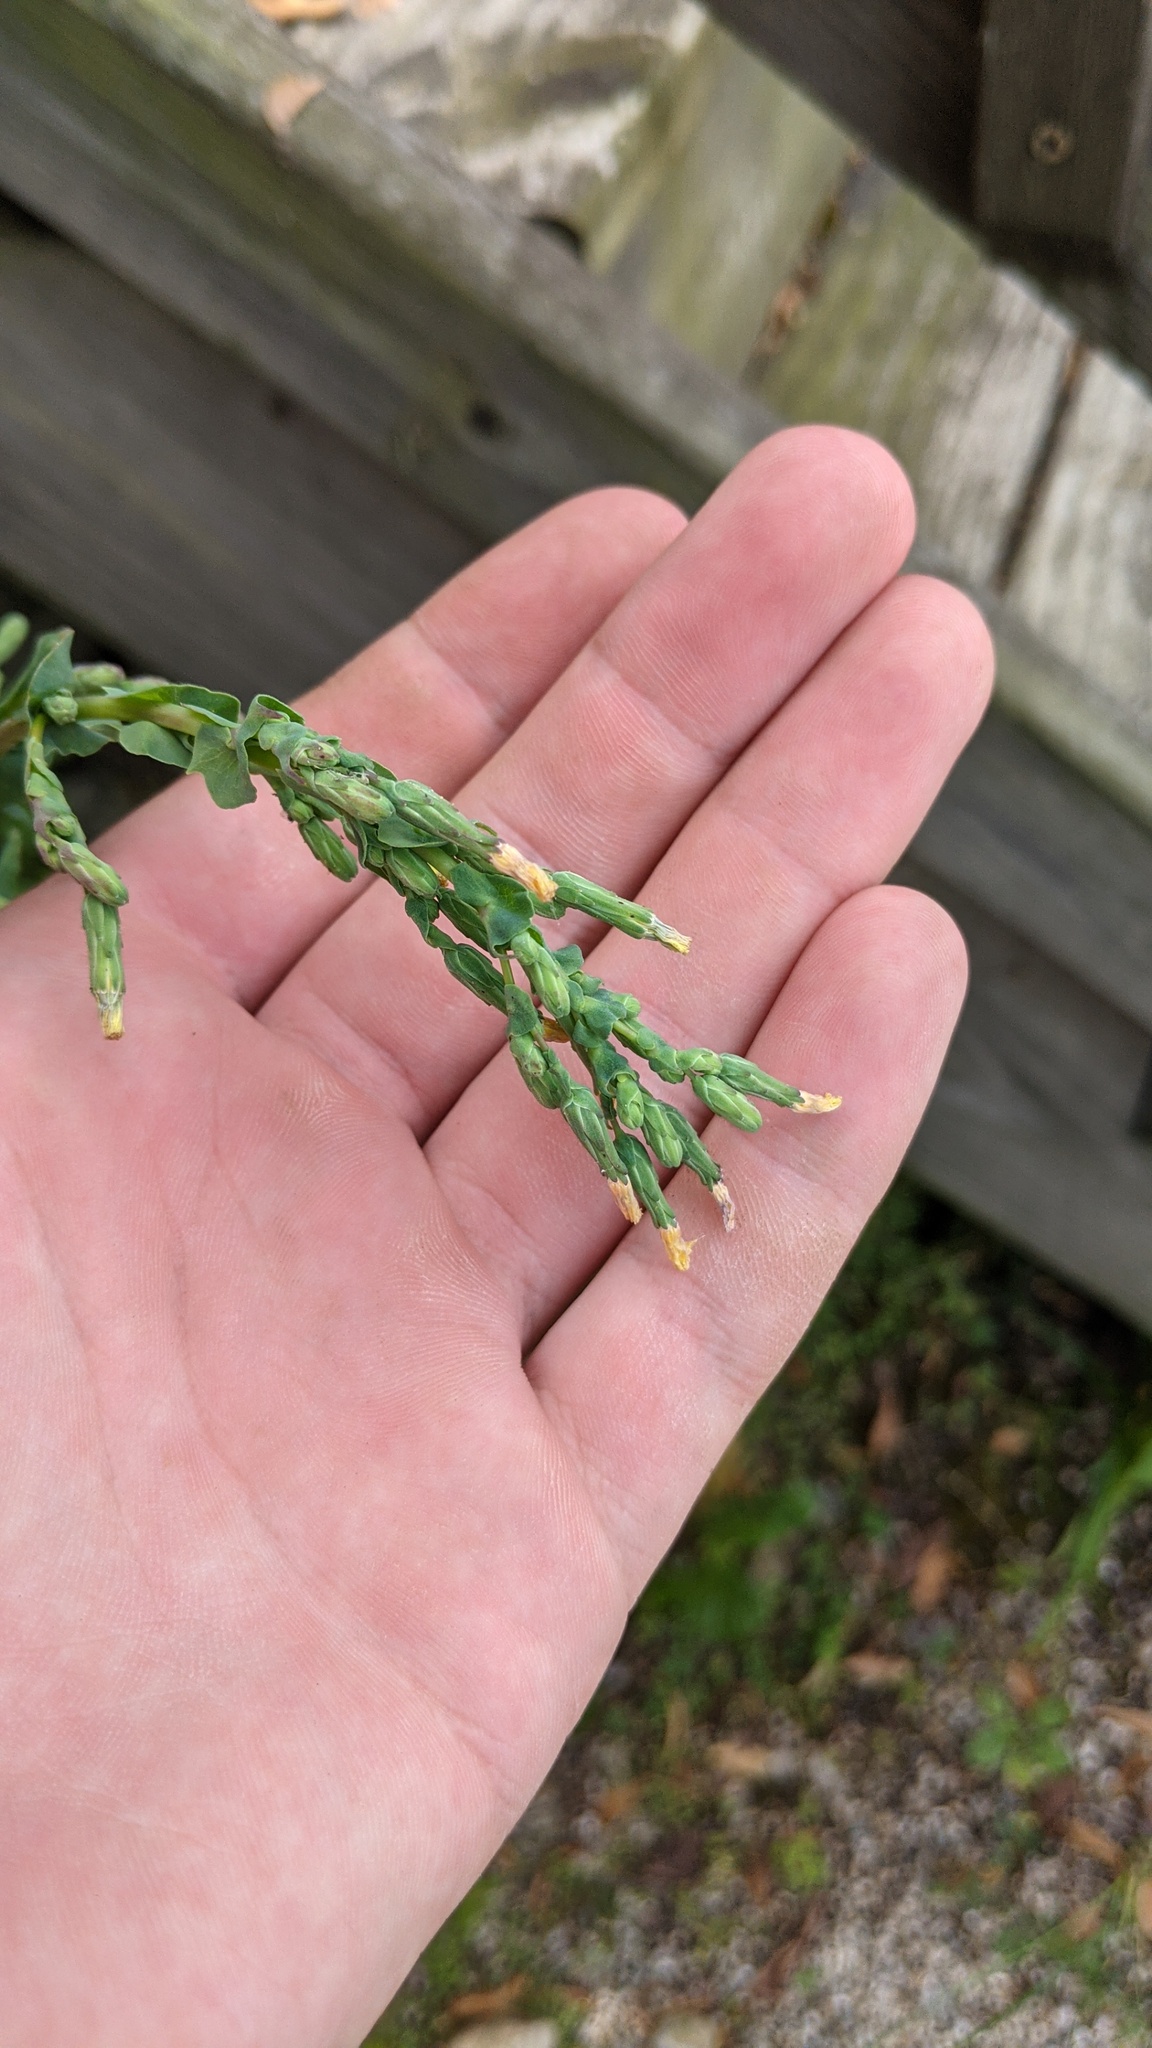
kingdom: Plantae
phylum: Tracheophyta
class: Magnoliopsida
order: Asterales
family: Asteraceae
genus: Lactuca
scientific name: Lactuca serriola
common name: Prickly lettuce
